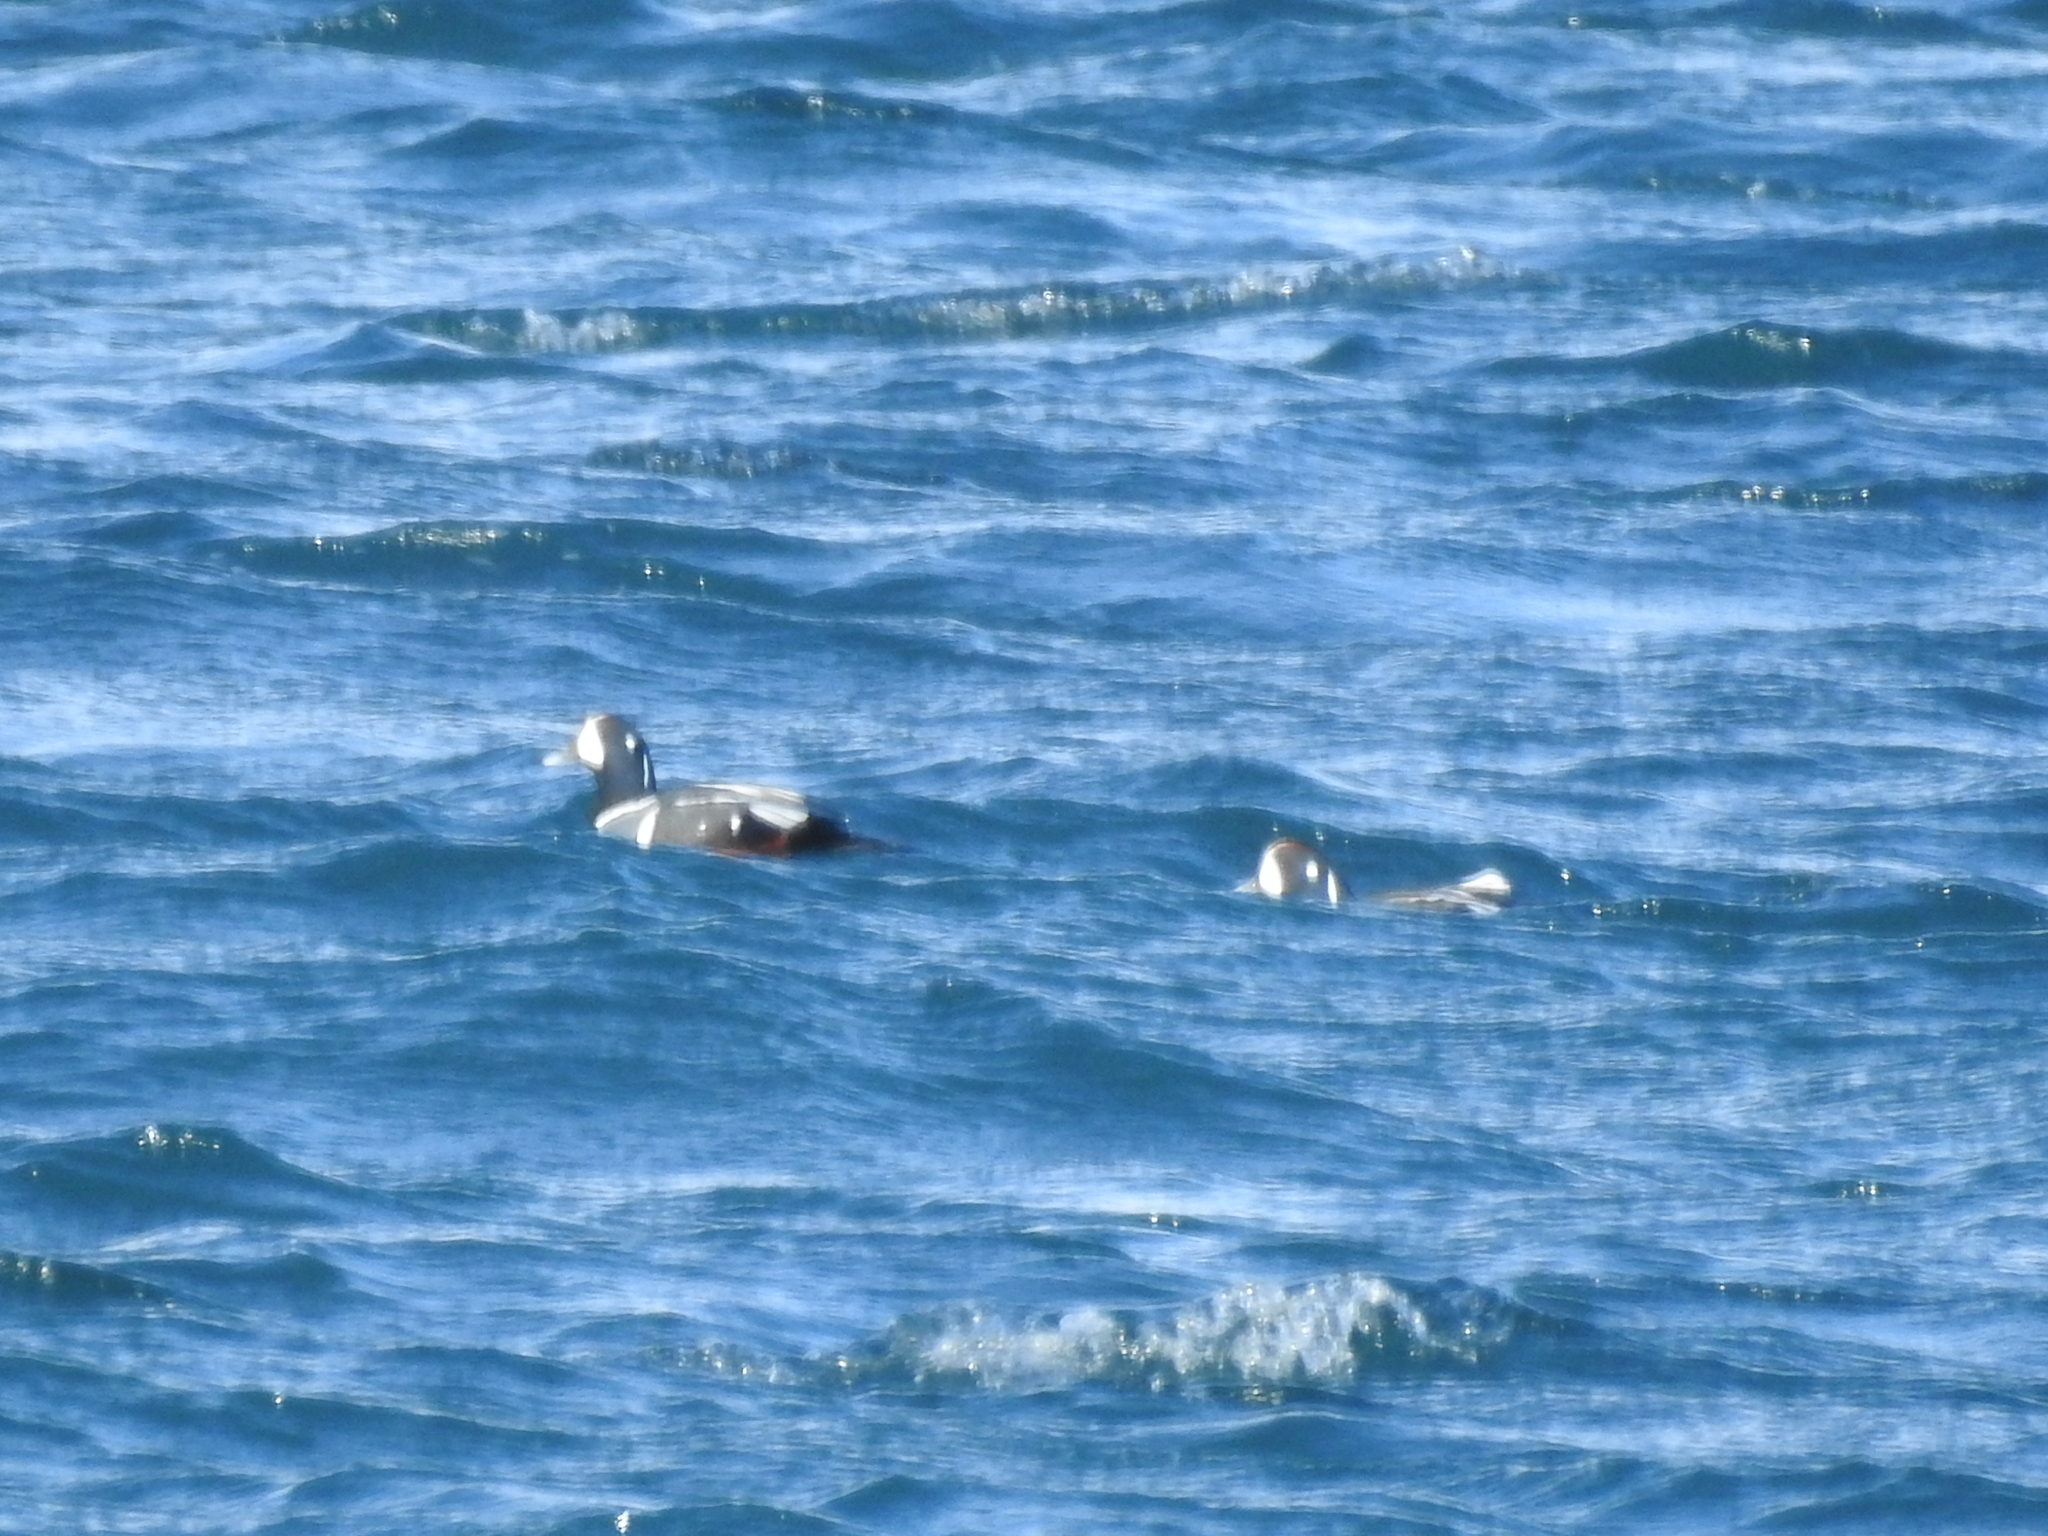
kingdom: Animalia
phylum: Chordata
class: Aves
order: Anseriformes
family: Anatidae
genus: Histrionicus
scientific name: Histrionicus histrionicus
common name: Harlequin duck
